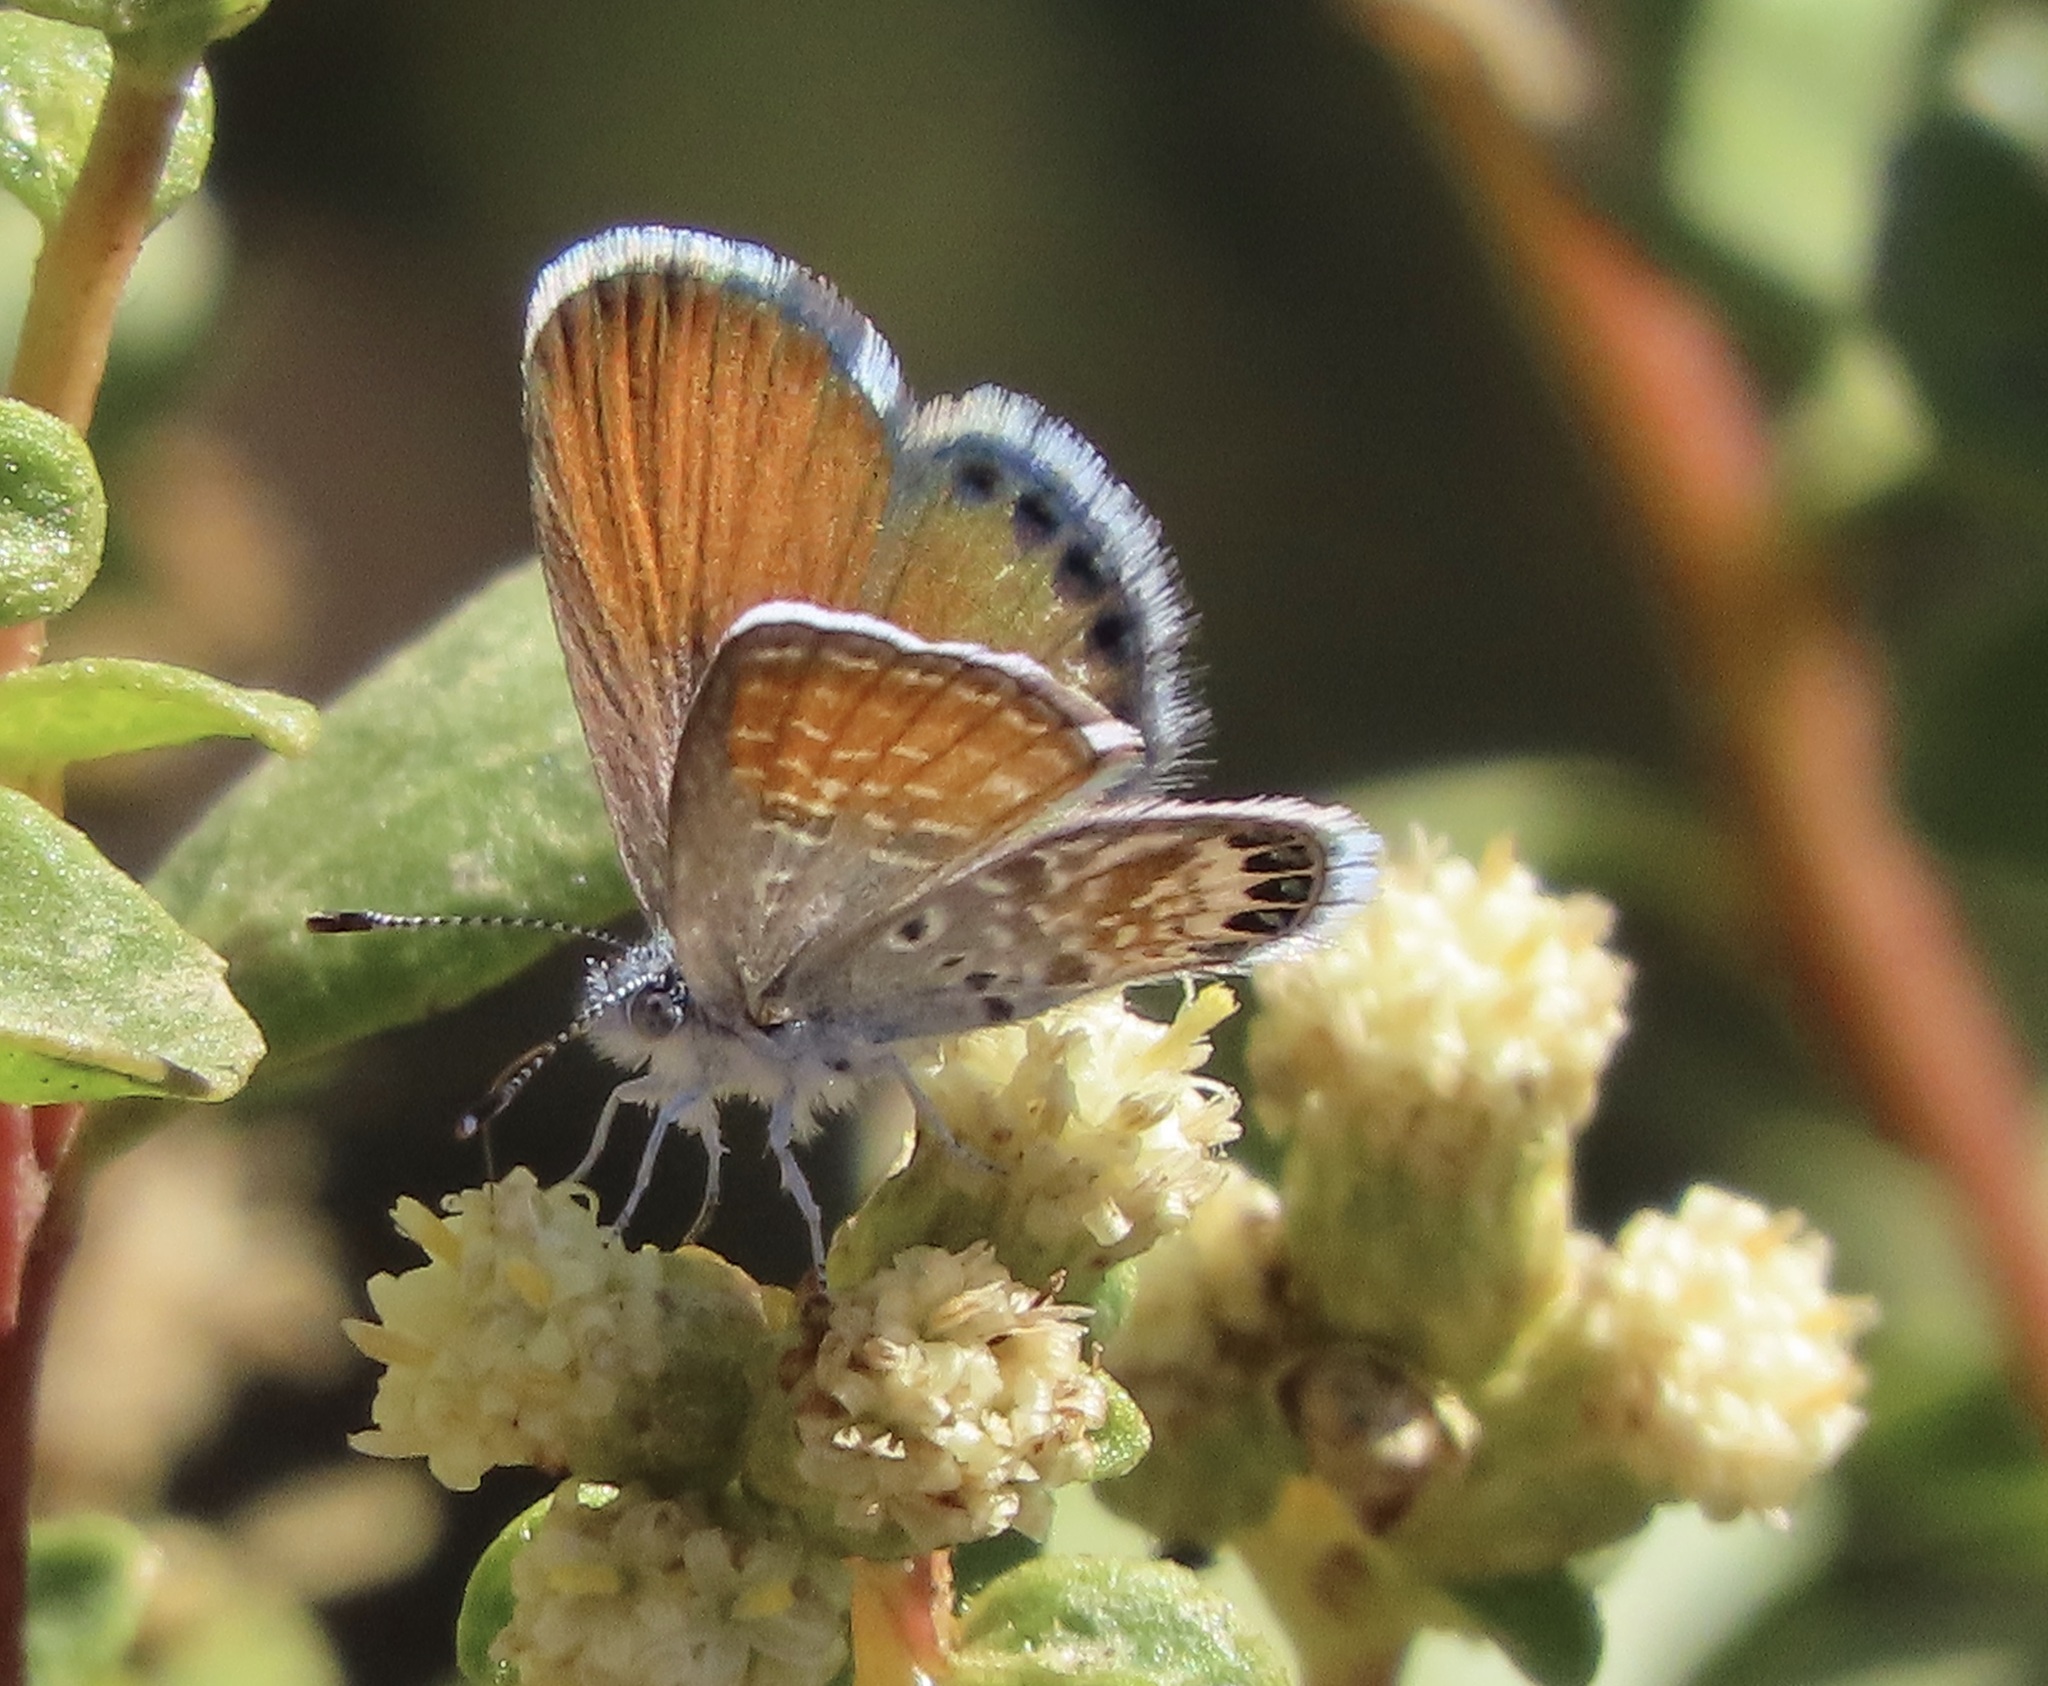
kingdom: Animalia
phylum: Arthropoda
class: Insecta
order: Lepidoptera
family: Lycaenidae
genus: Brephidium
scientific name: Brephidium exilis
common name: Pygmy blue
